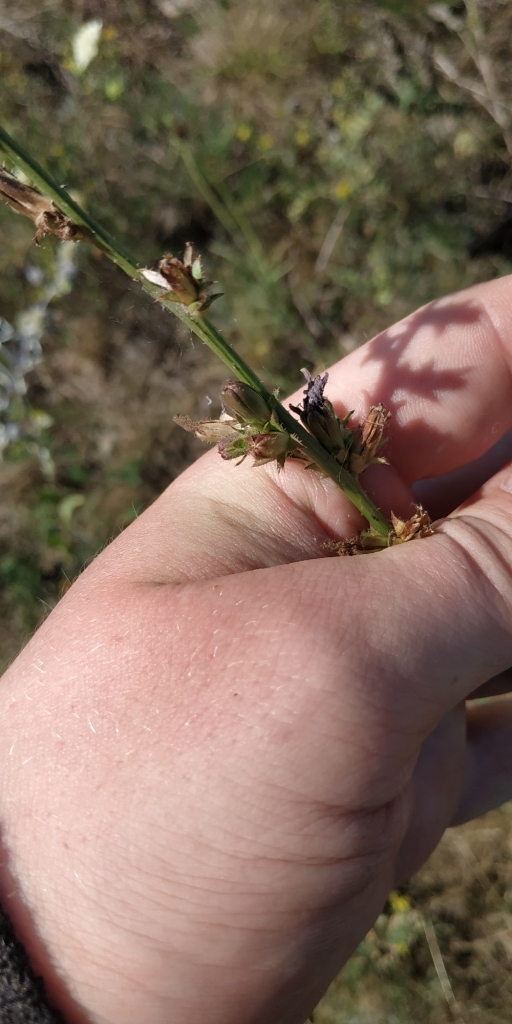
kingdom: Plantae
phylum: Tracheophyta
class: Magnoliopsida
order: Asterales
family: Asteraceae
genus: Cichorium
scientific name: Cichorium intybus
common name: Chicory
